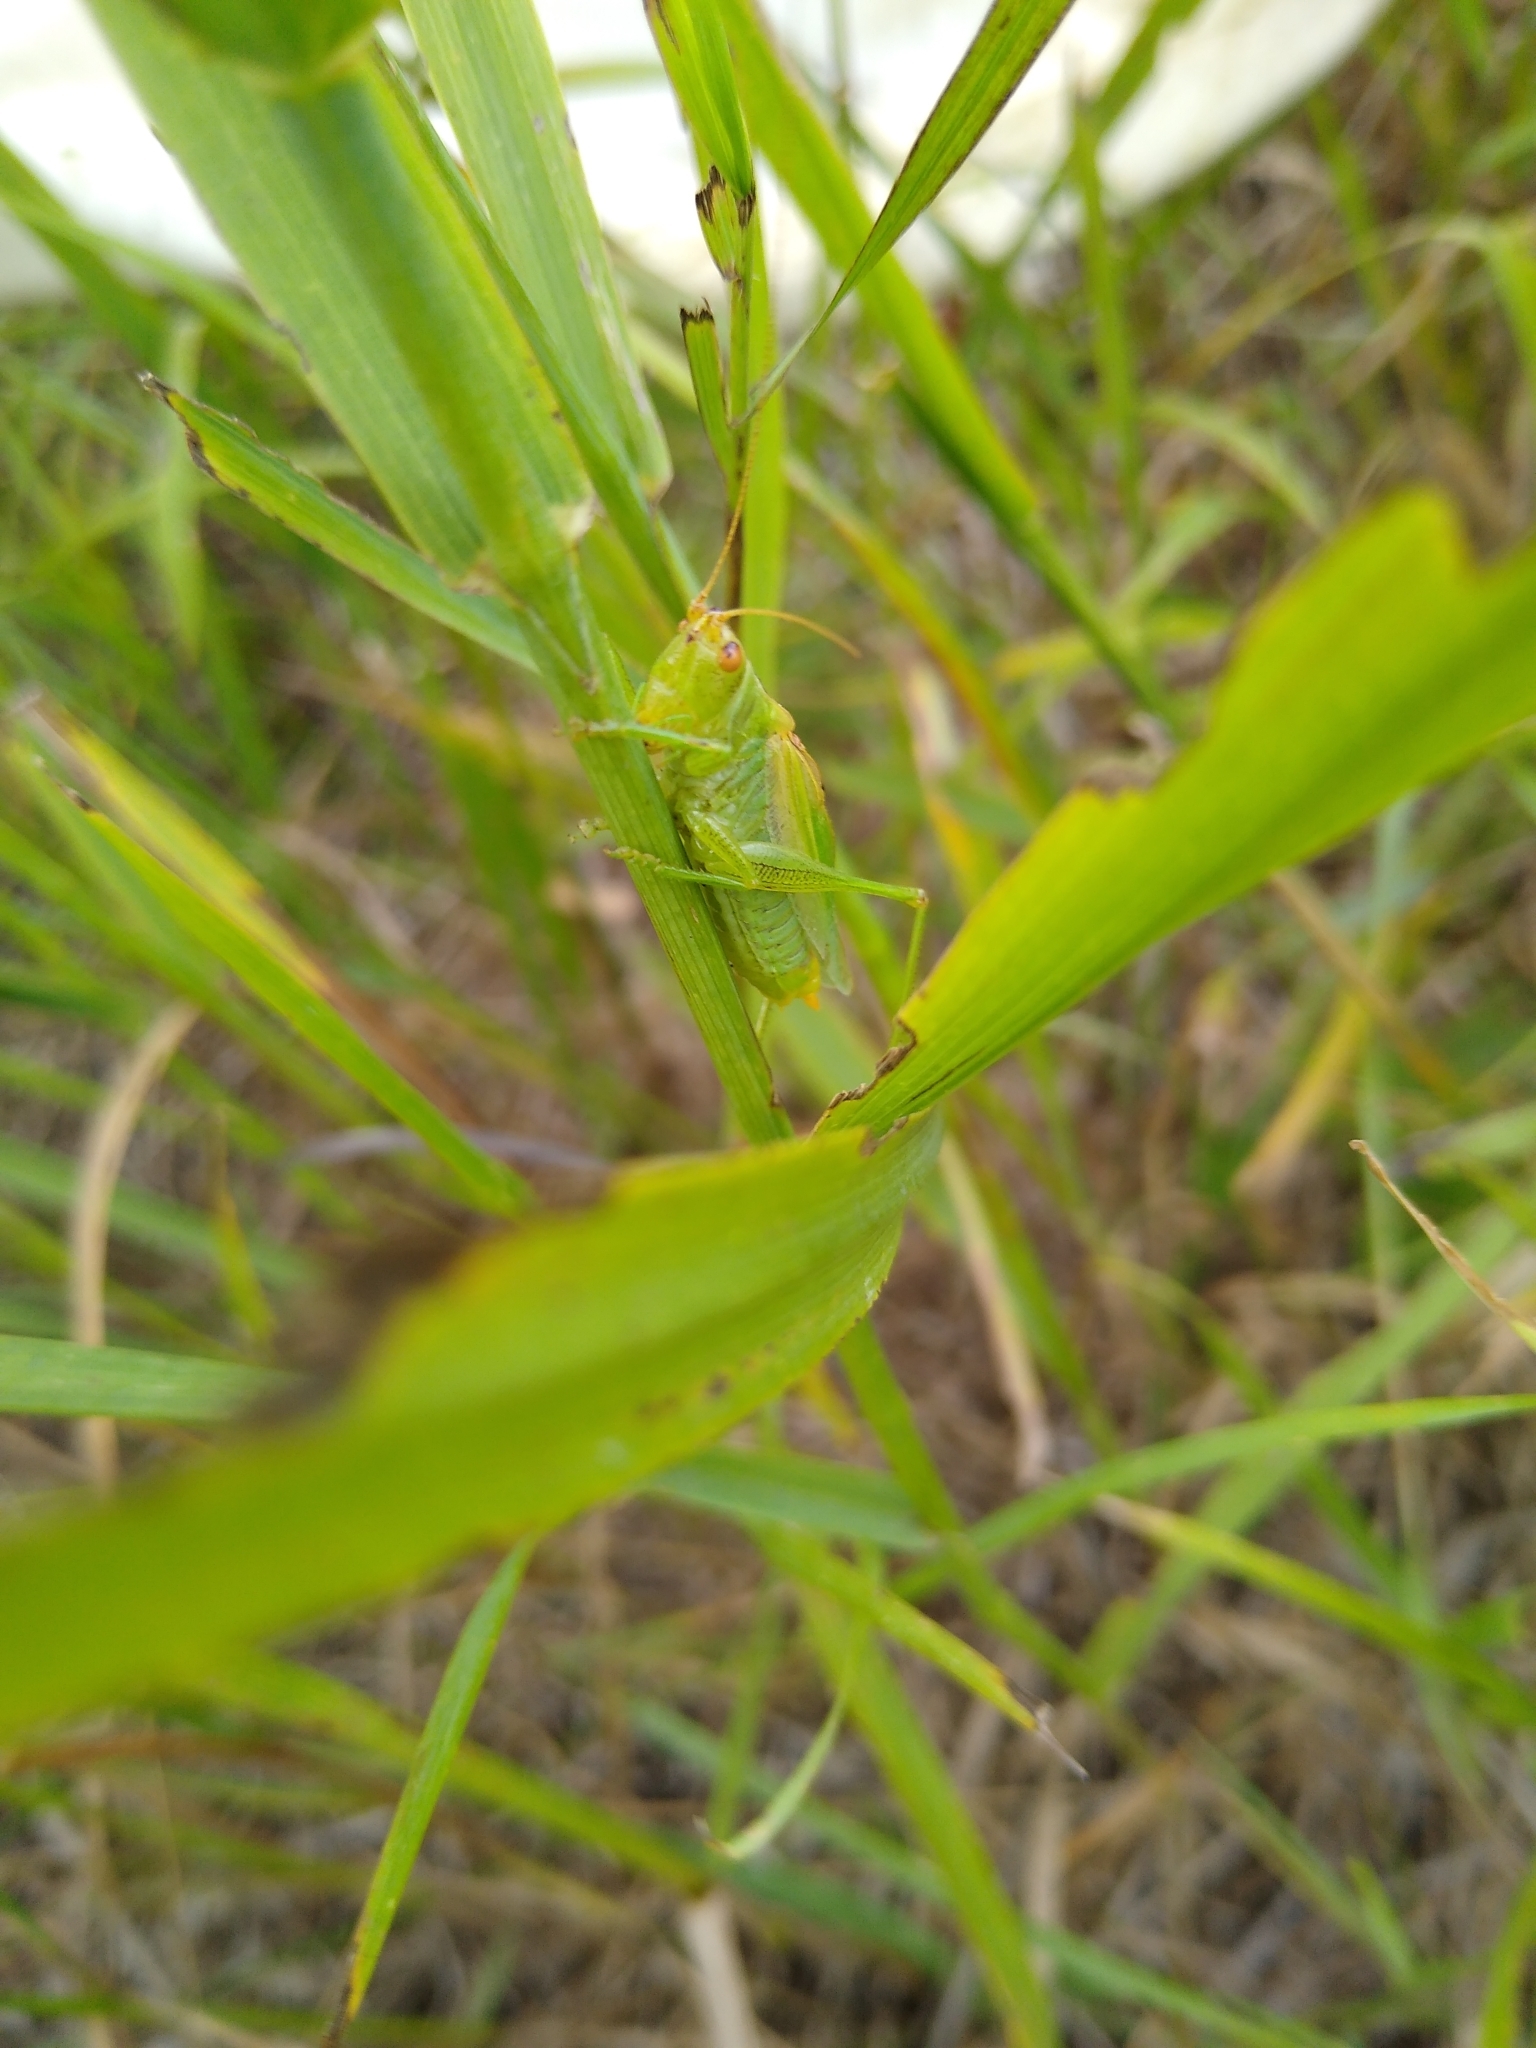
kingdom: Animalia
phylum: Arthropoda
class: Insecta
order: Orthoptera
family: Tettigoniidae
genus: Orchelimum
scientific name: Orchelimum gladiator
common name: Gladiator meadow katydid
